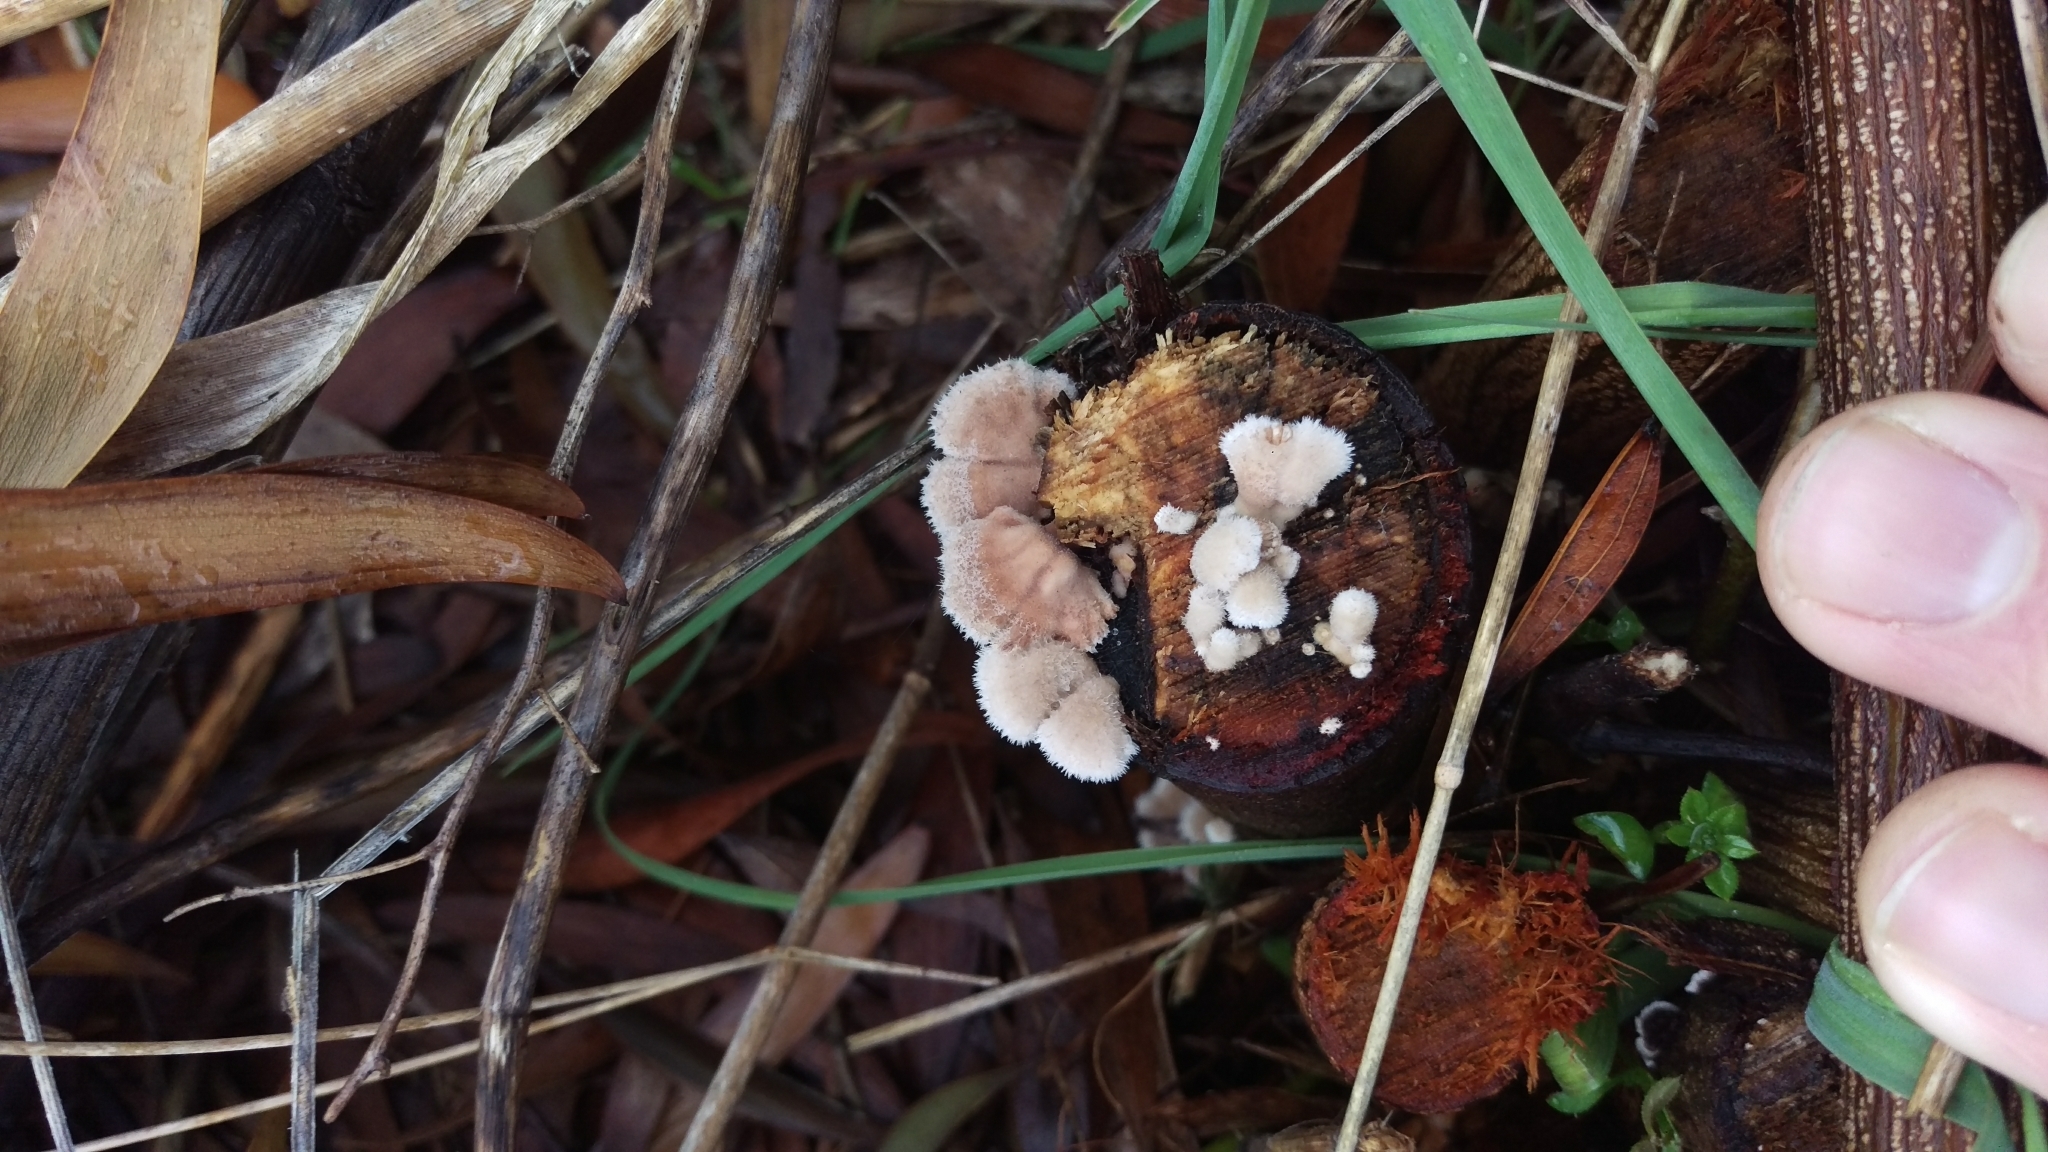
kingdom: Fungi
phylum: Basidiomycota
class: Agaricomycetes
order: Agaricales
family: Schizophyllaceae
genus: Schizophyllum
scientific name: Schizophyllum commune
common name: Common porecrust
